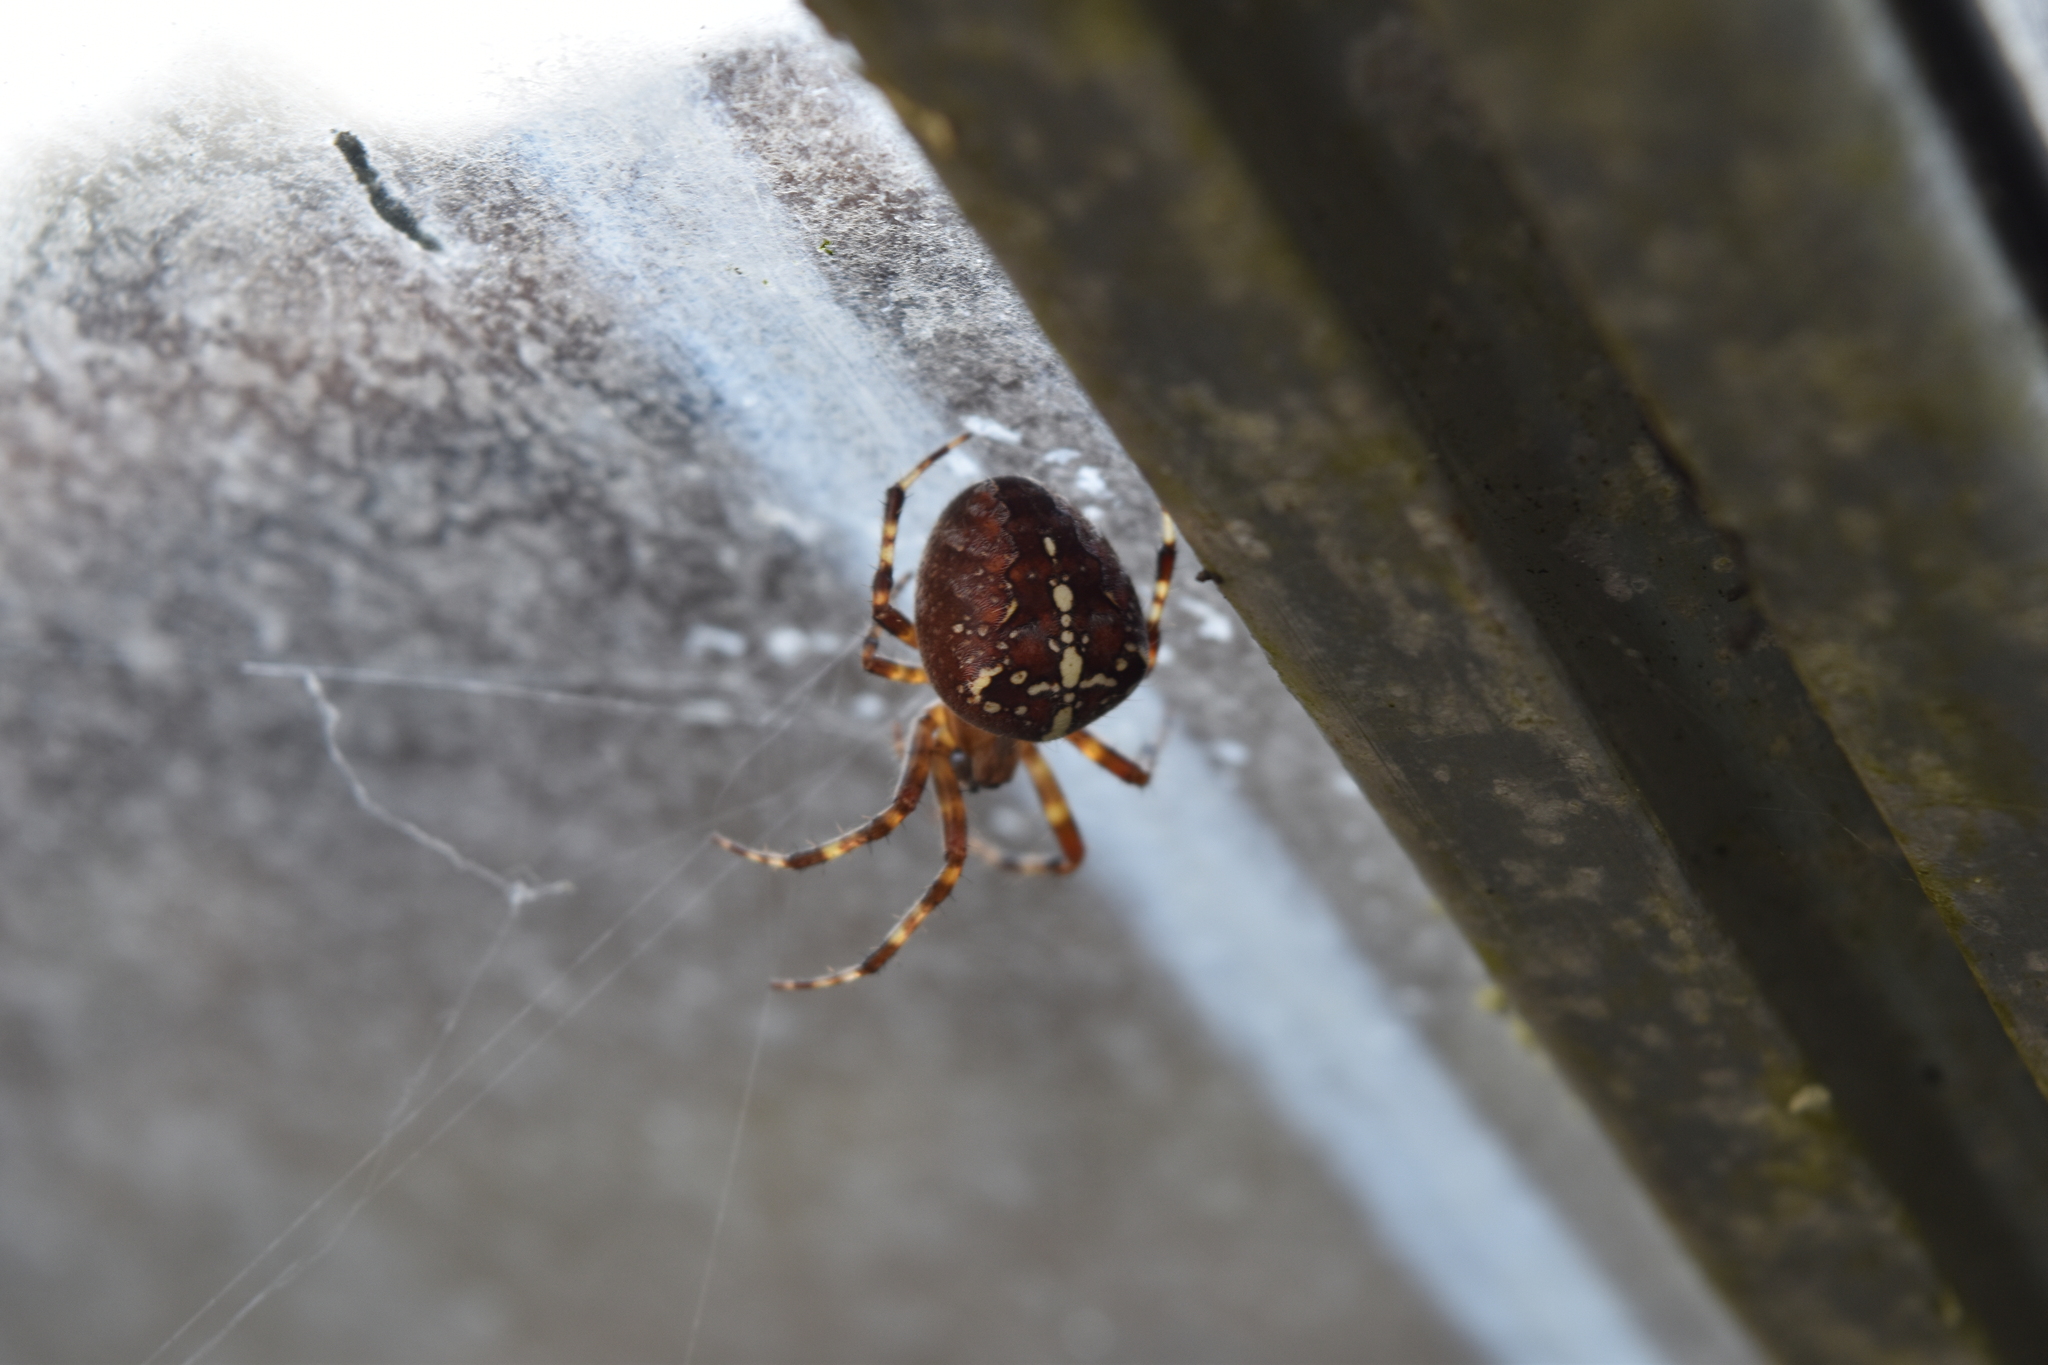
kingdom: Animalia
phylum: Arthropoda
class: Arachnida
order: Araneae
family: Araneidae
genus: Araneus
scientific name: Araneus diadematus
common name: Cross orbweaver
